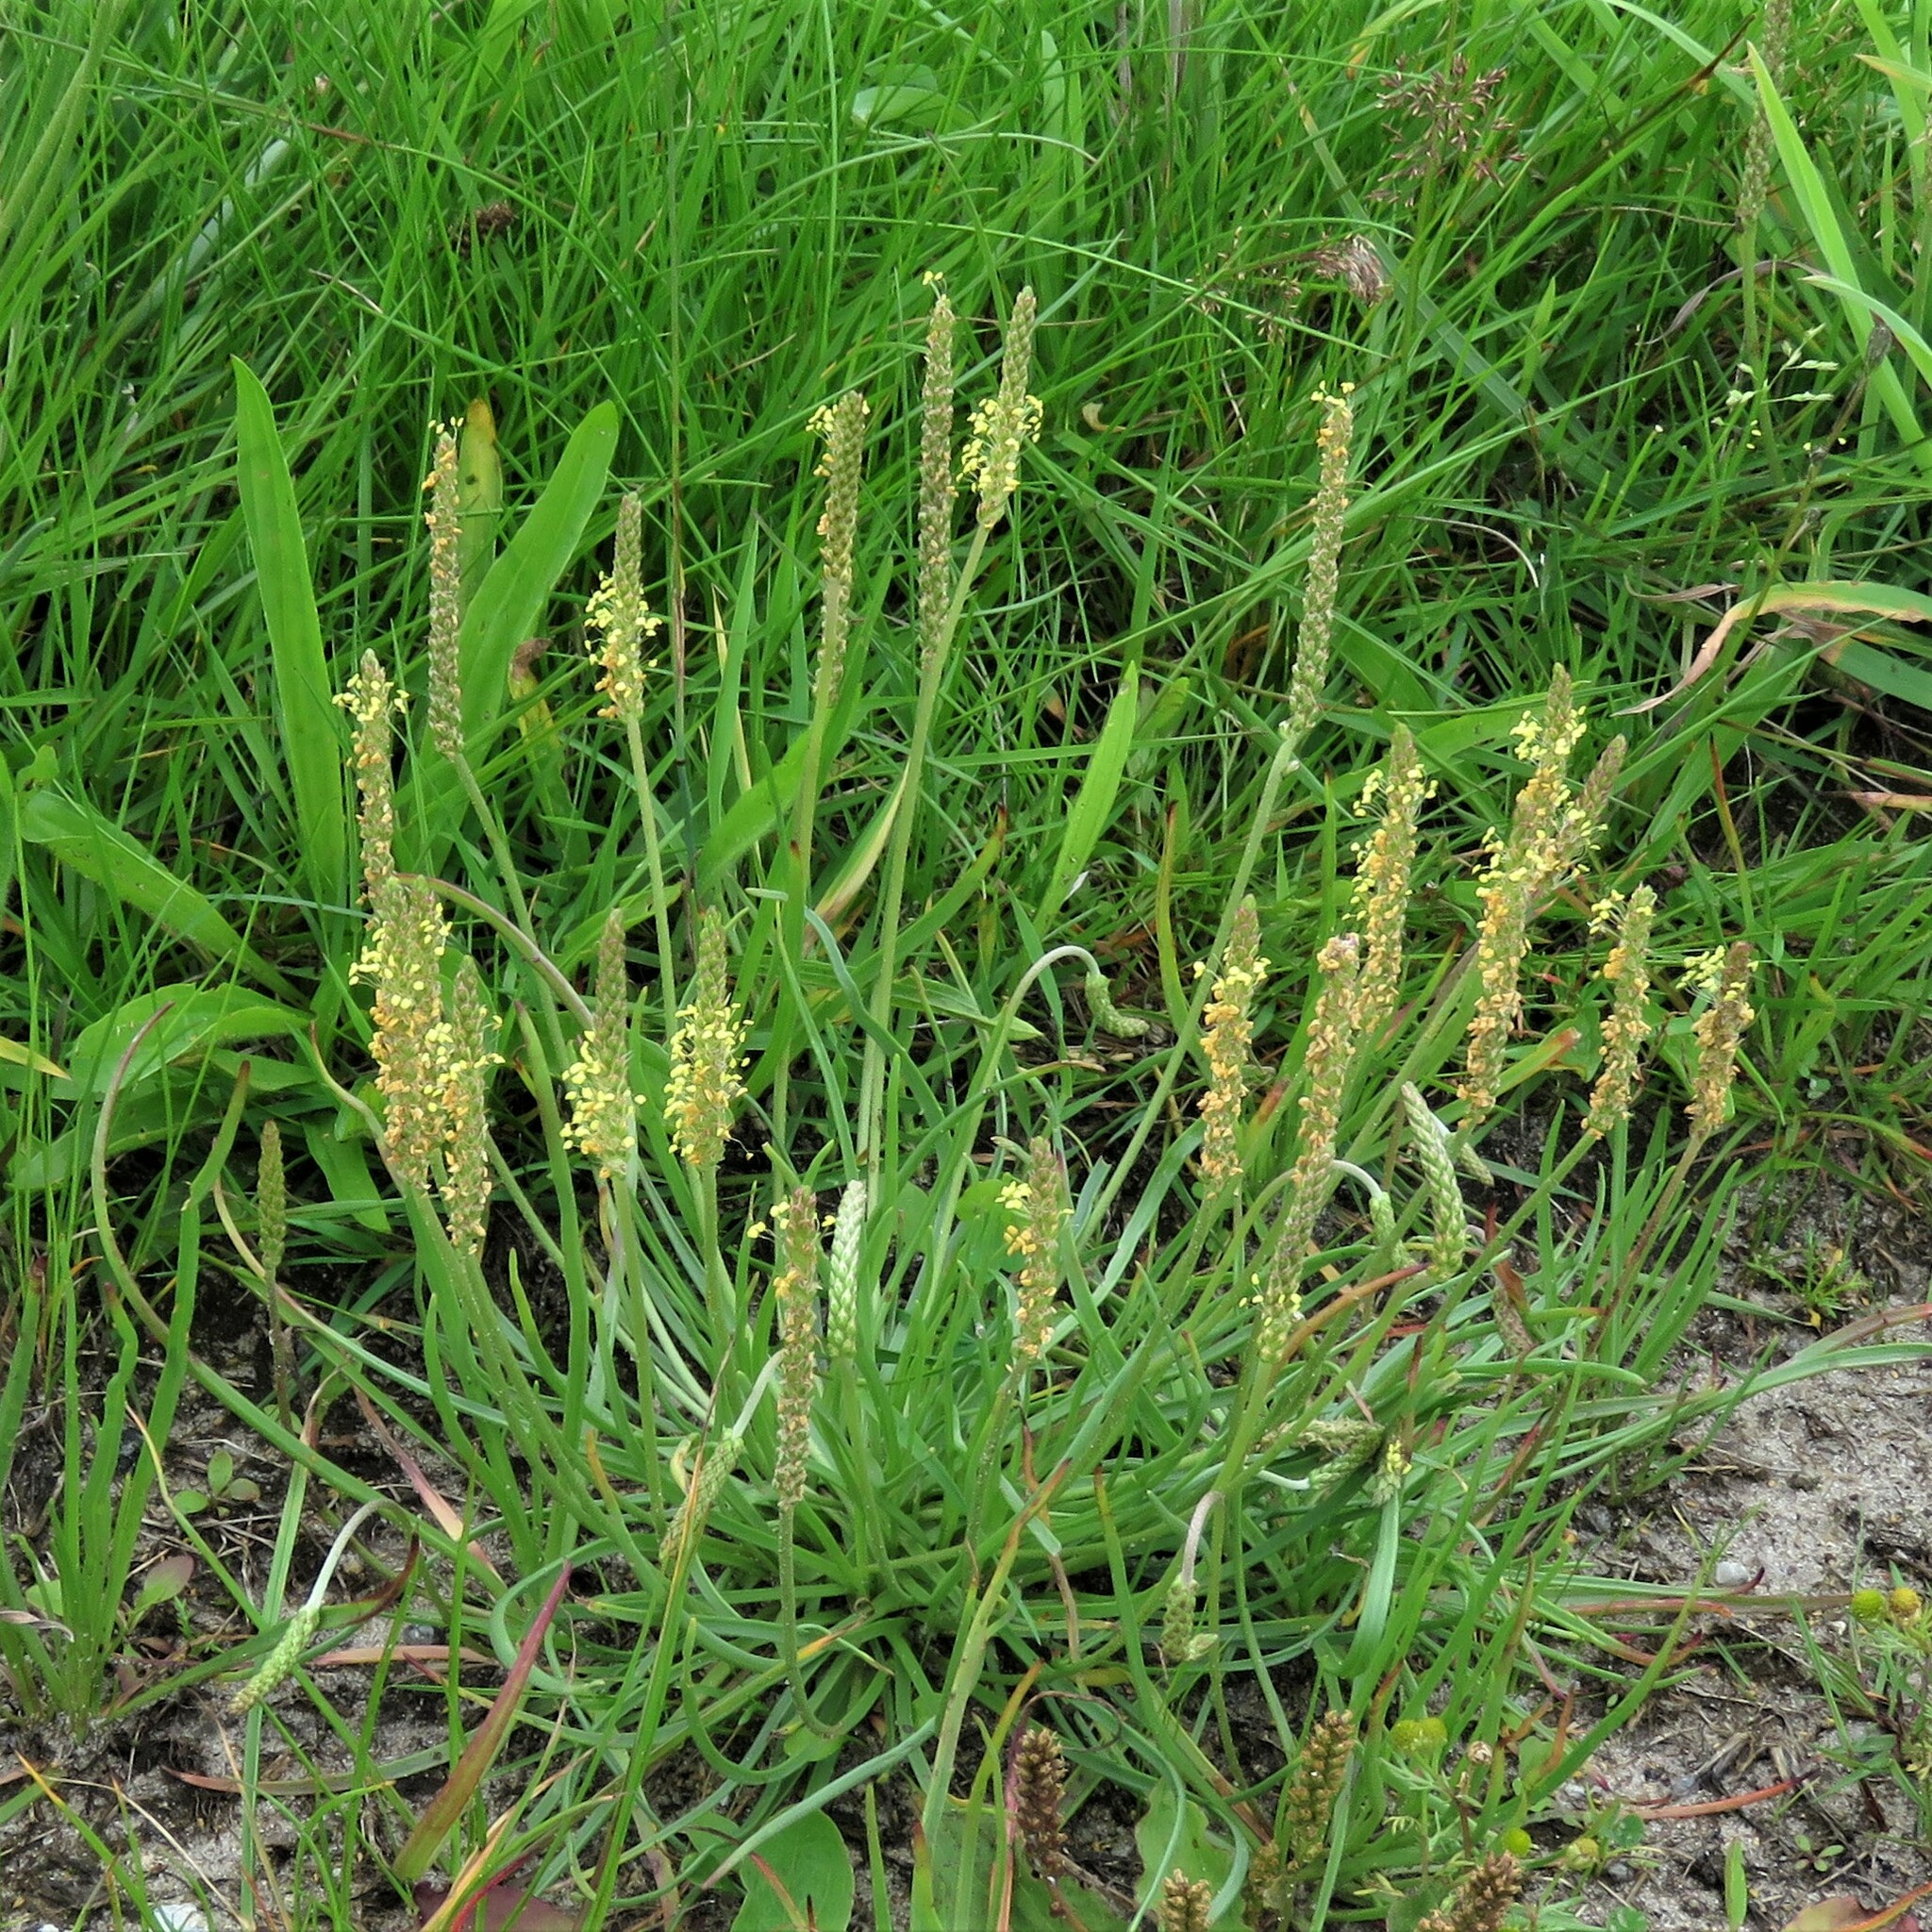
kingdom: Plantae
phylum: Tracheophyta
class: Magnoliopsida
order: Lamiales
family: Plantaginaceae
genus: Plantago
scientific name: Plantago maritima
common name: Sea plantain
